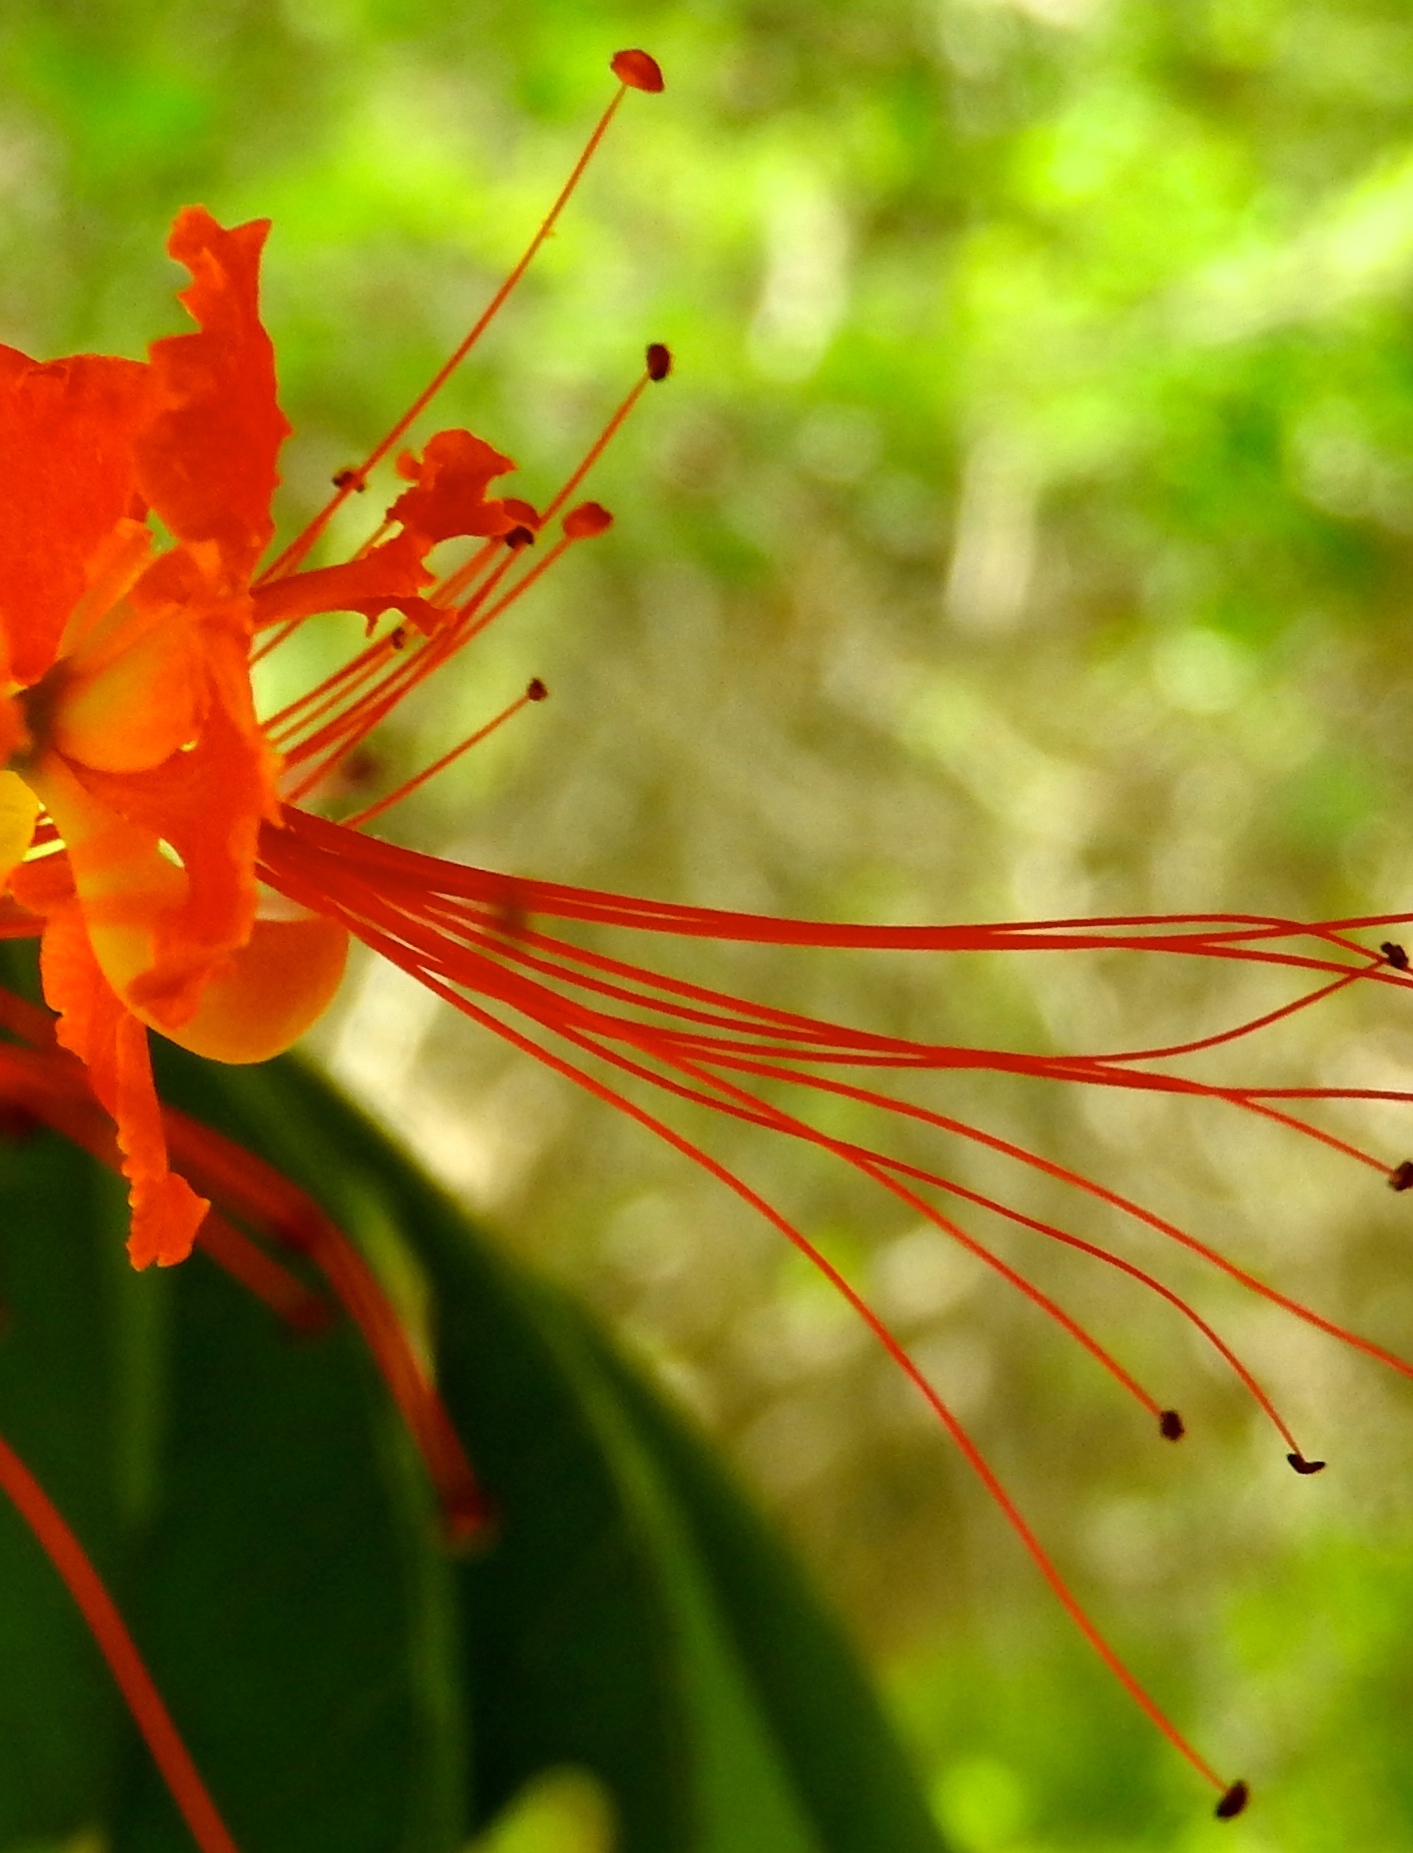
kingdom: Plantae
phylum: Tracheophyta
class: Magnoliopsida
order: Fabales
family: Fabaceae
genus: Caesalpinia
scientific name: Caesalpinia pulcherrima
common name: Pride-of-barbados
